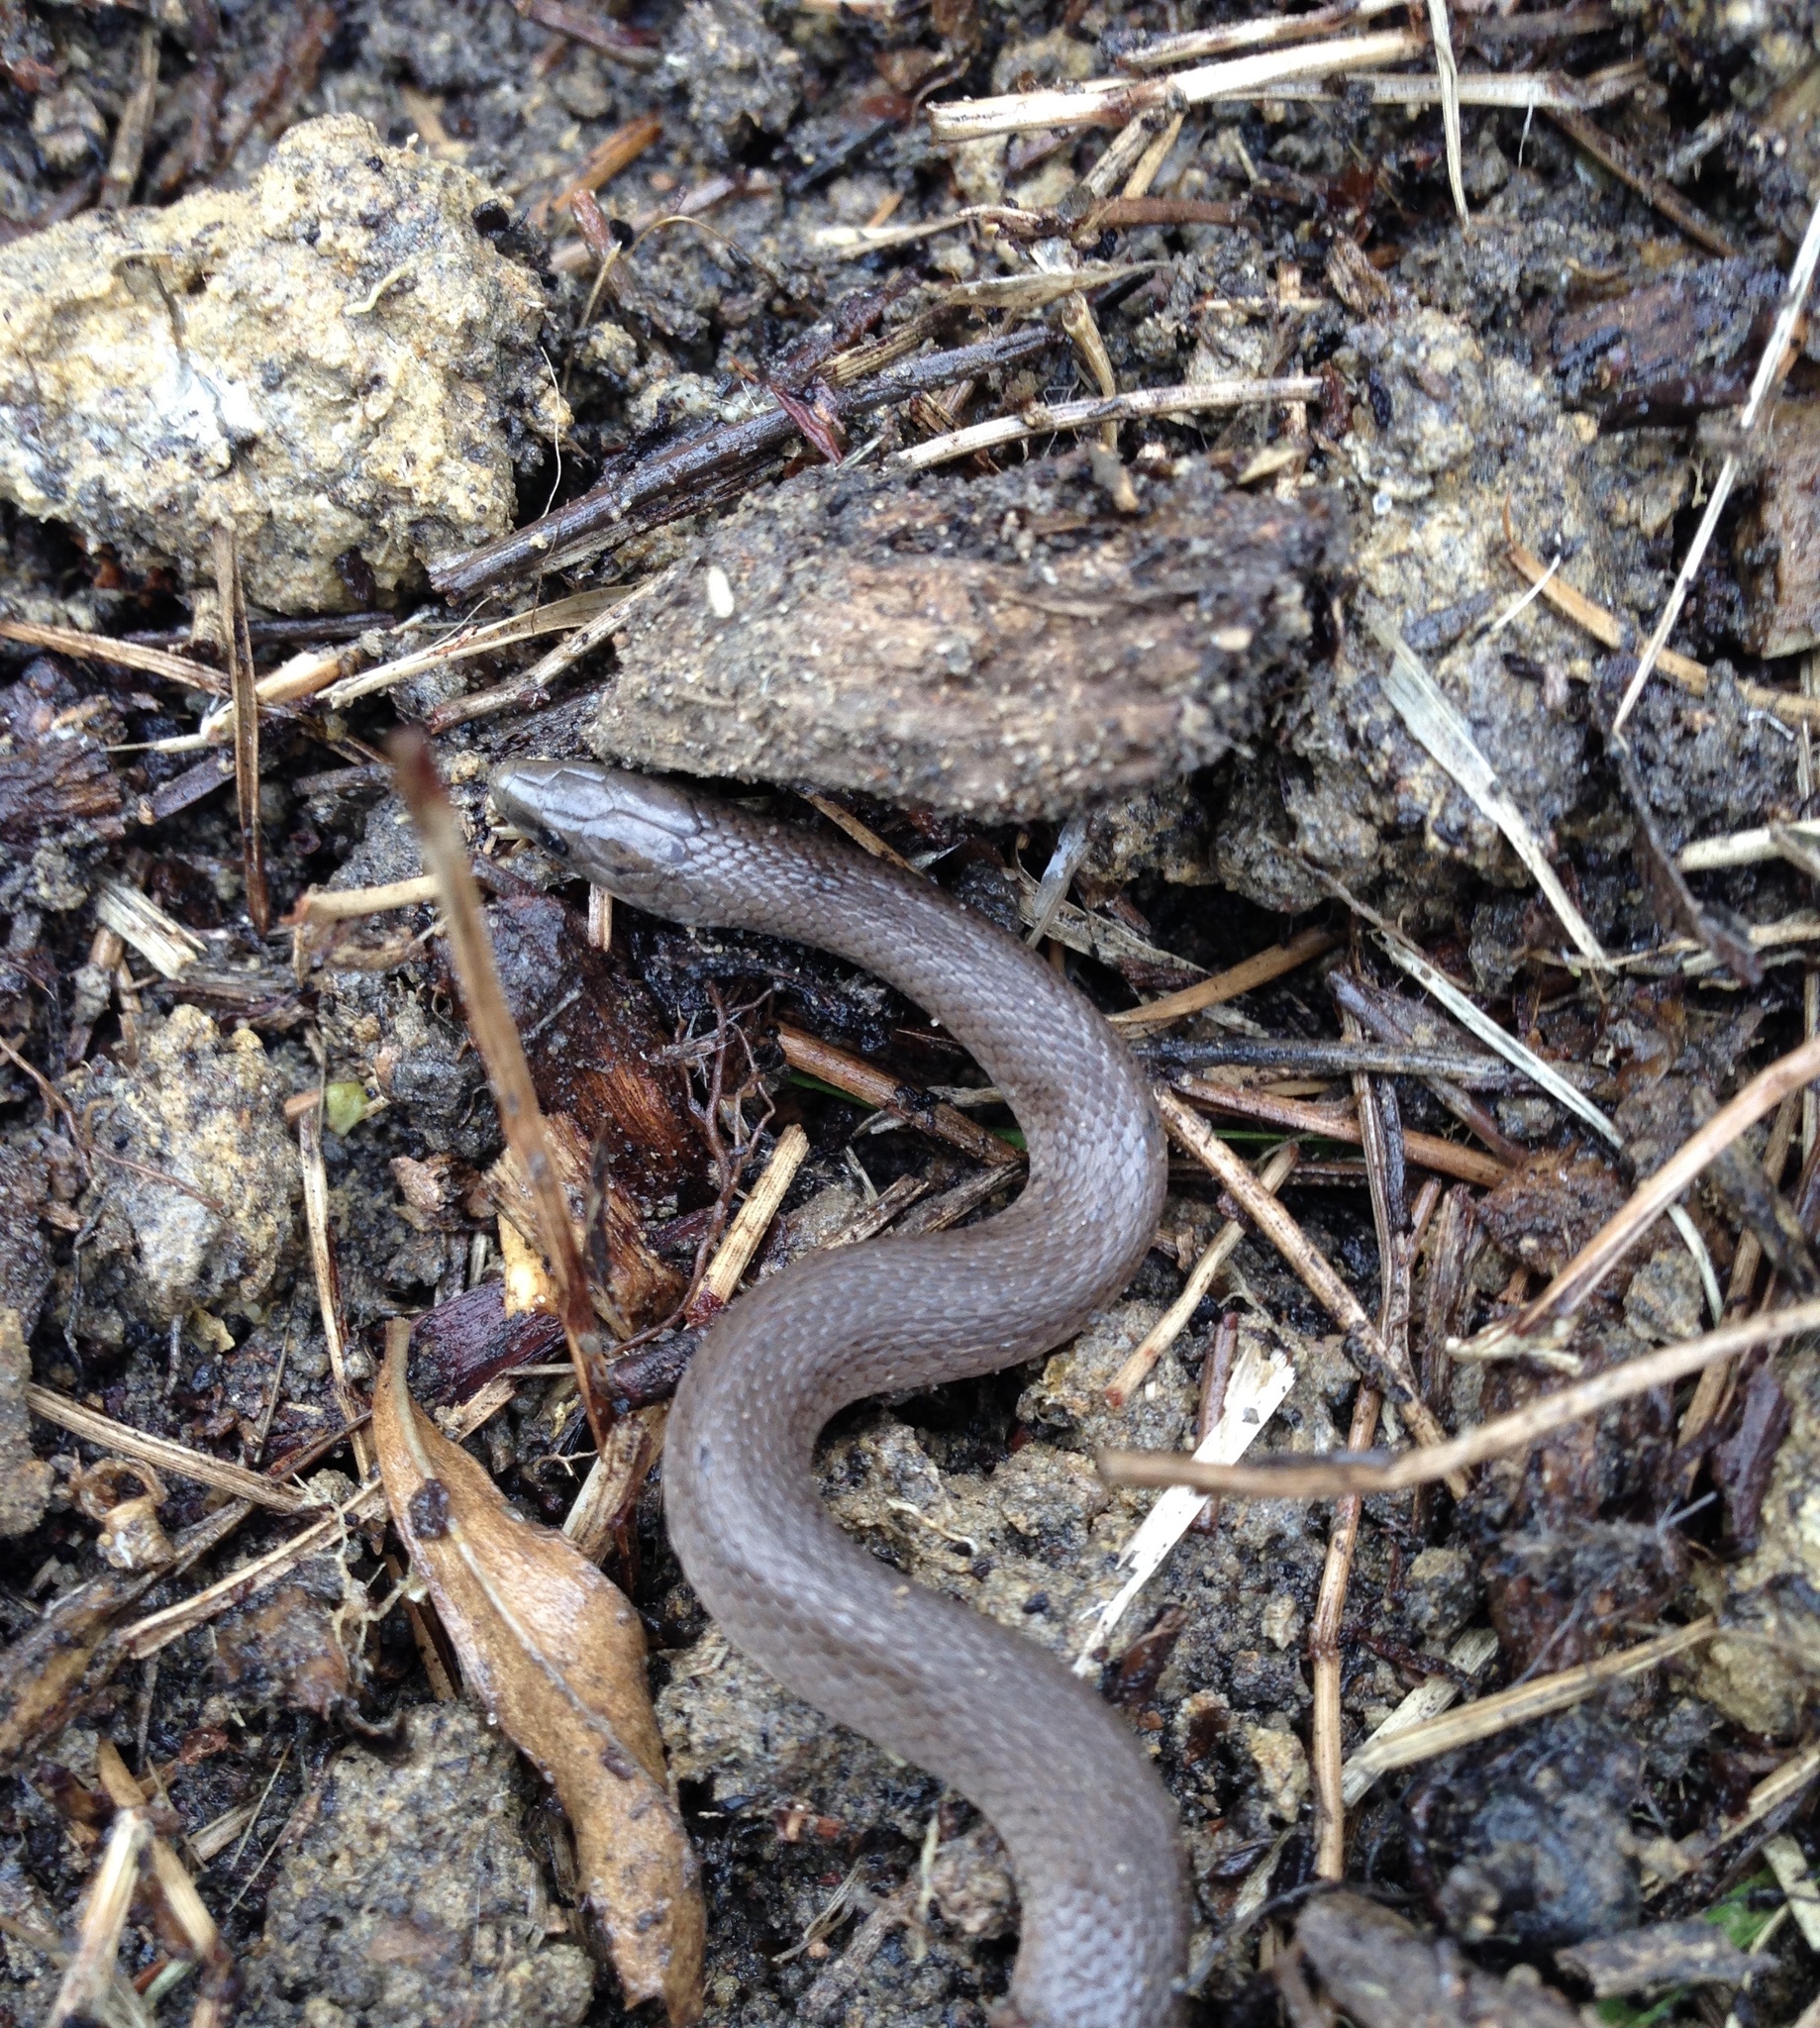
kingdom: Animalia
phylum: Chordata
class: Squamata
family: Colubridae
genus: Haldea
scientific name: Haldea striatula
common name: Rough earth snake
